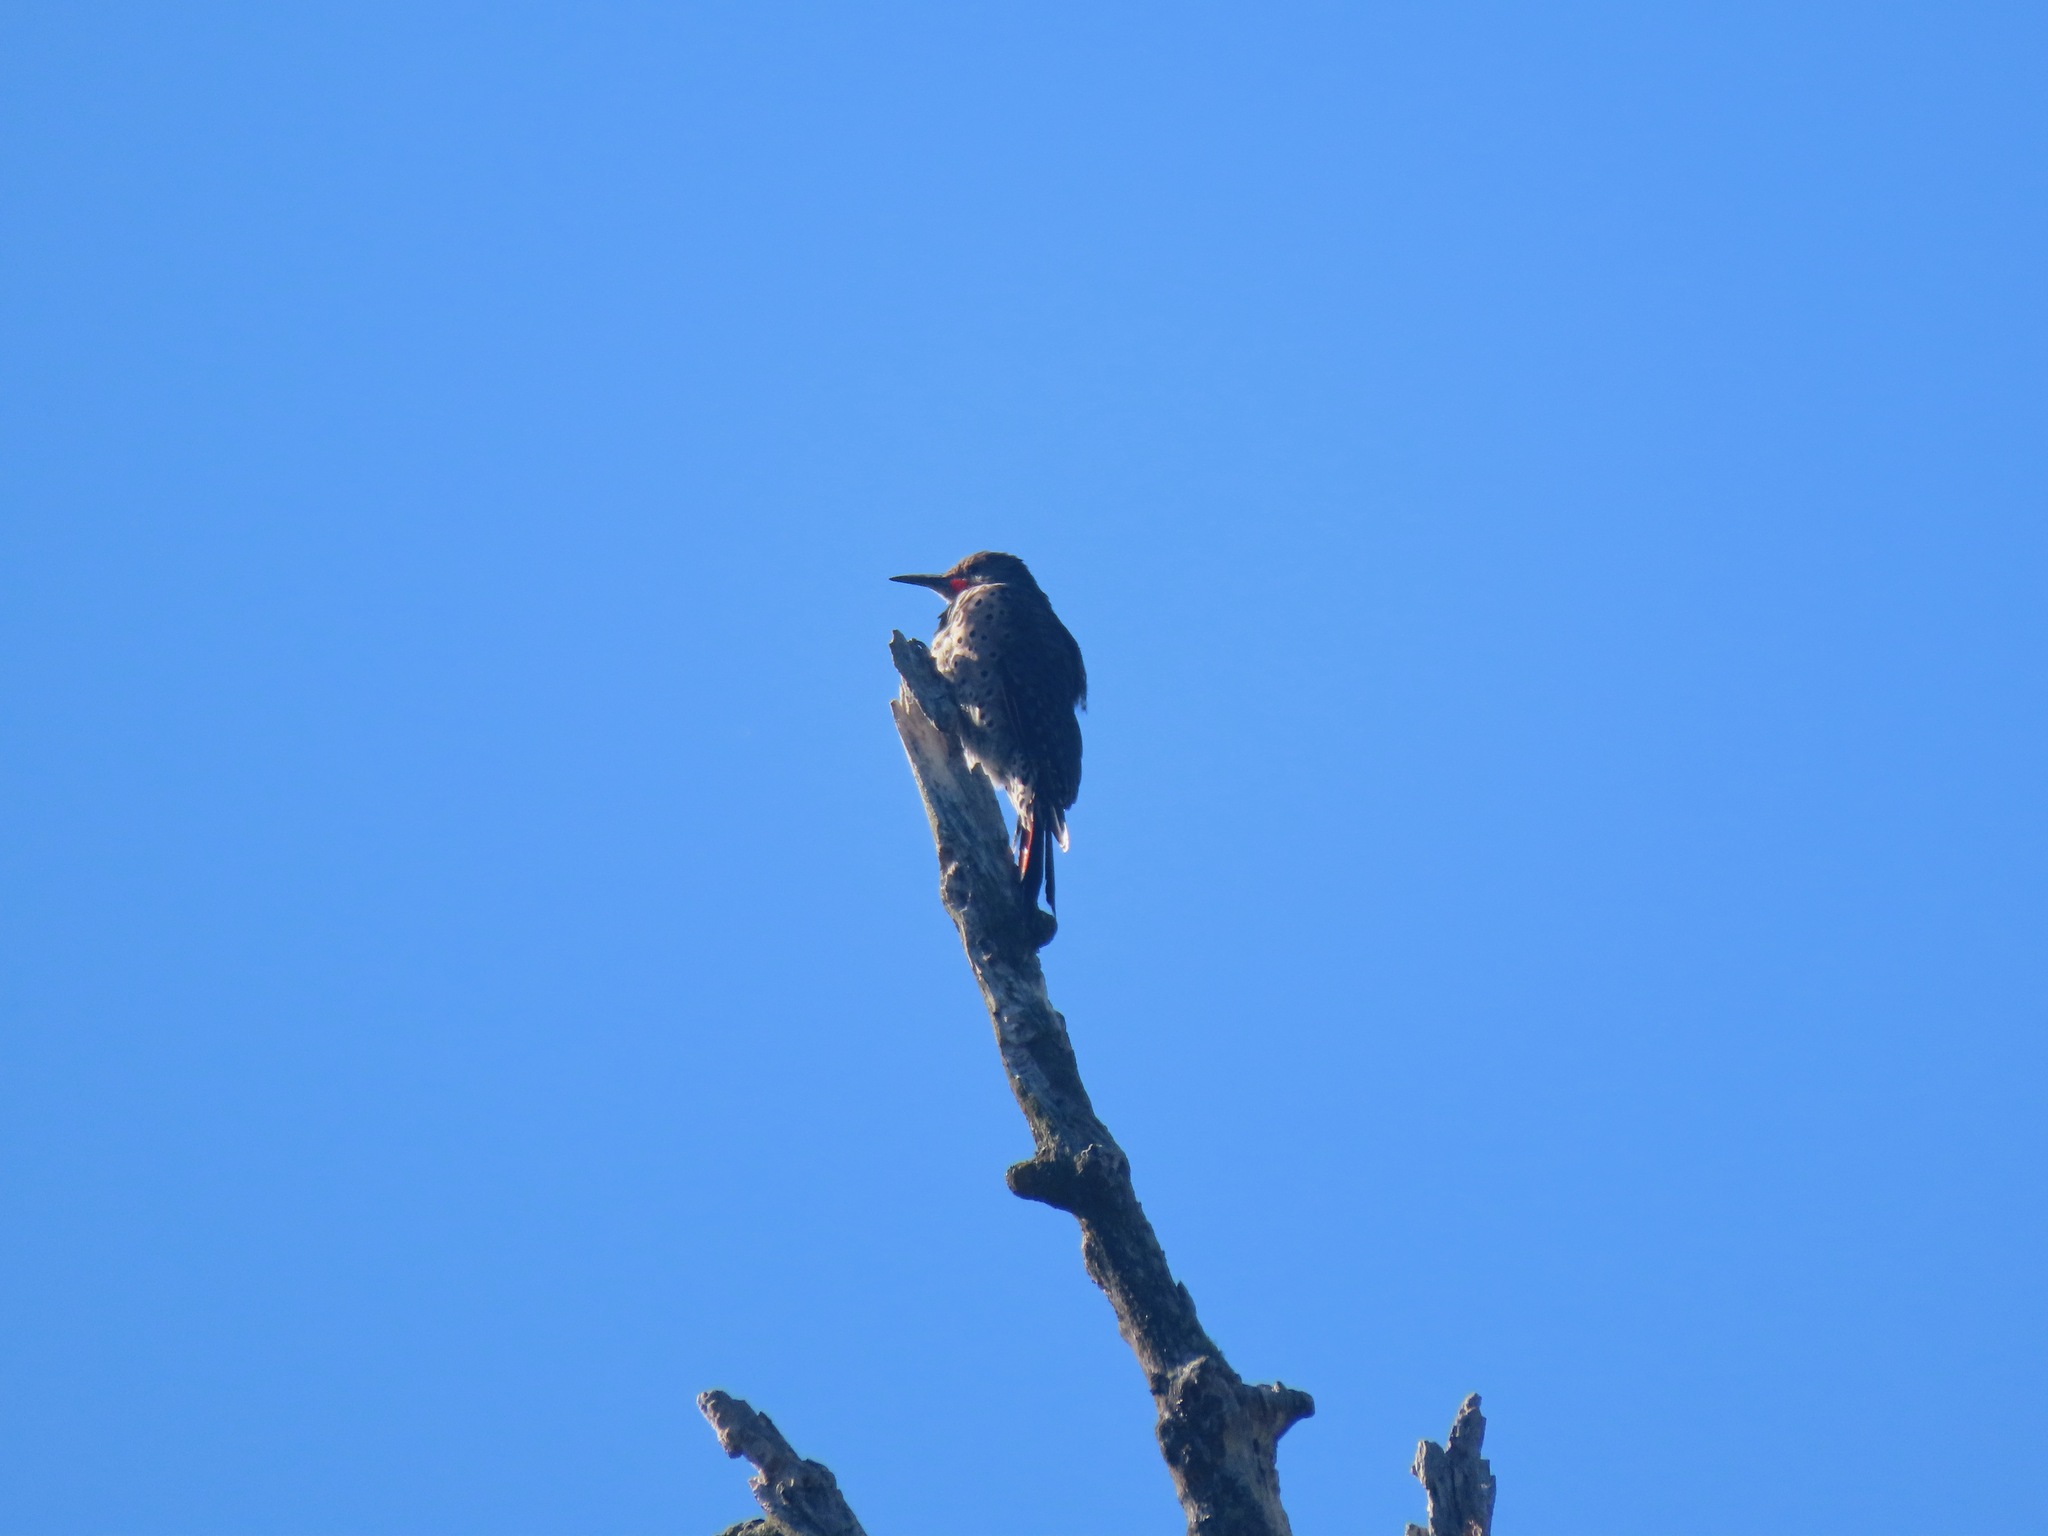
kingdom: Animalia
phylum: Chordata
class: Aves
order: Piciformes
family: Picidae
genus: Colaptes
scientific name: Colaptes auratus
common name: Northern flicker
